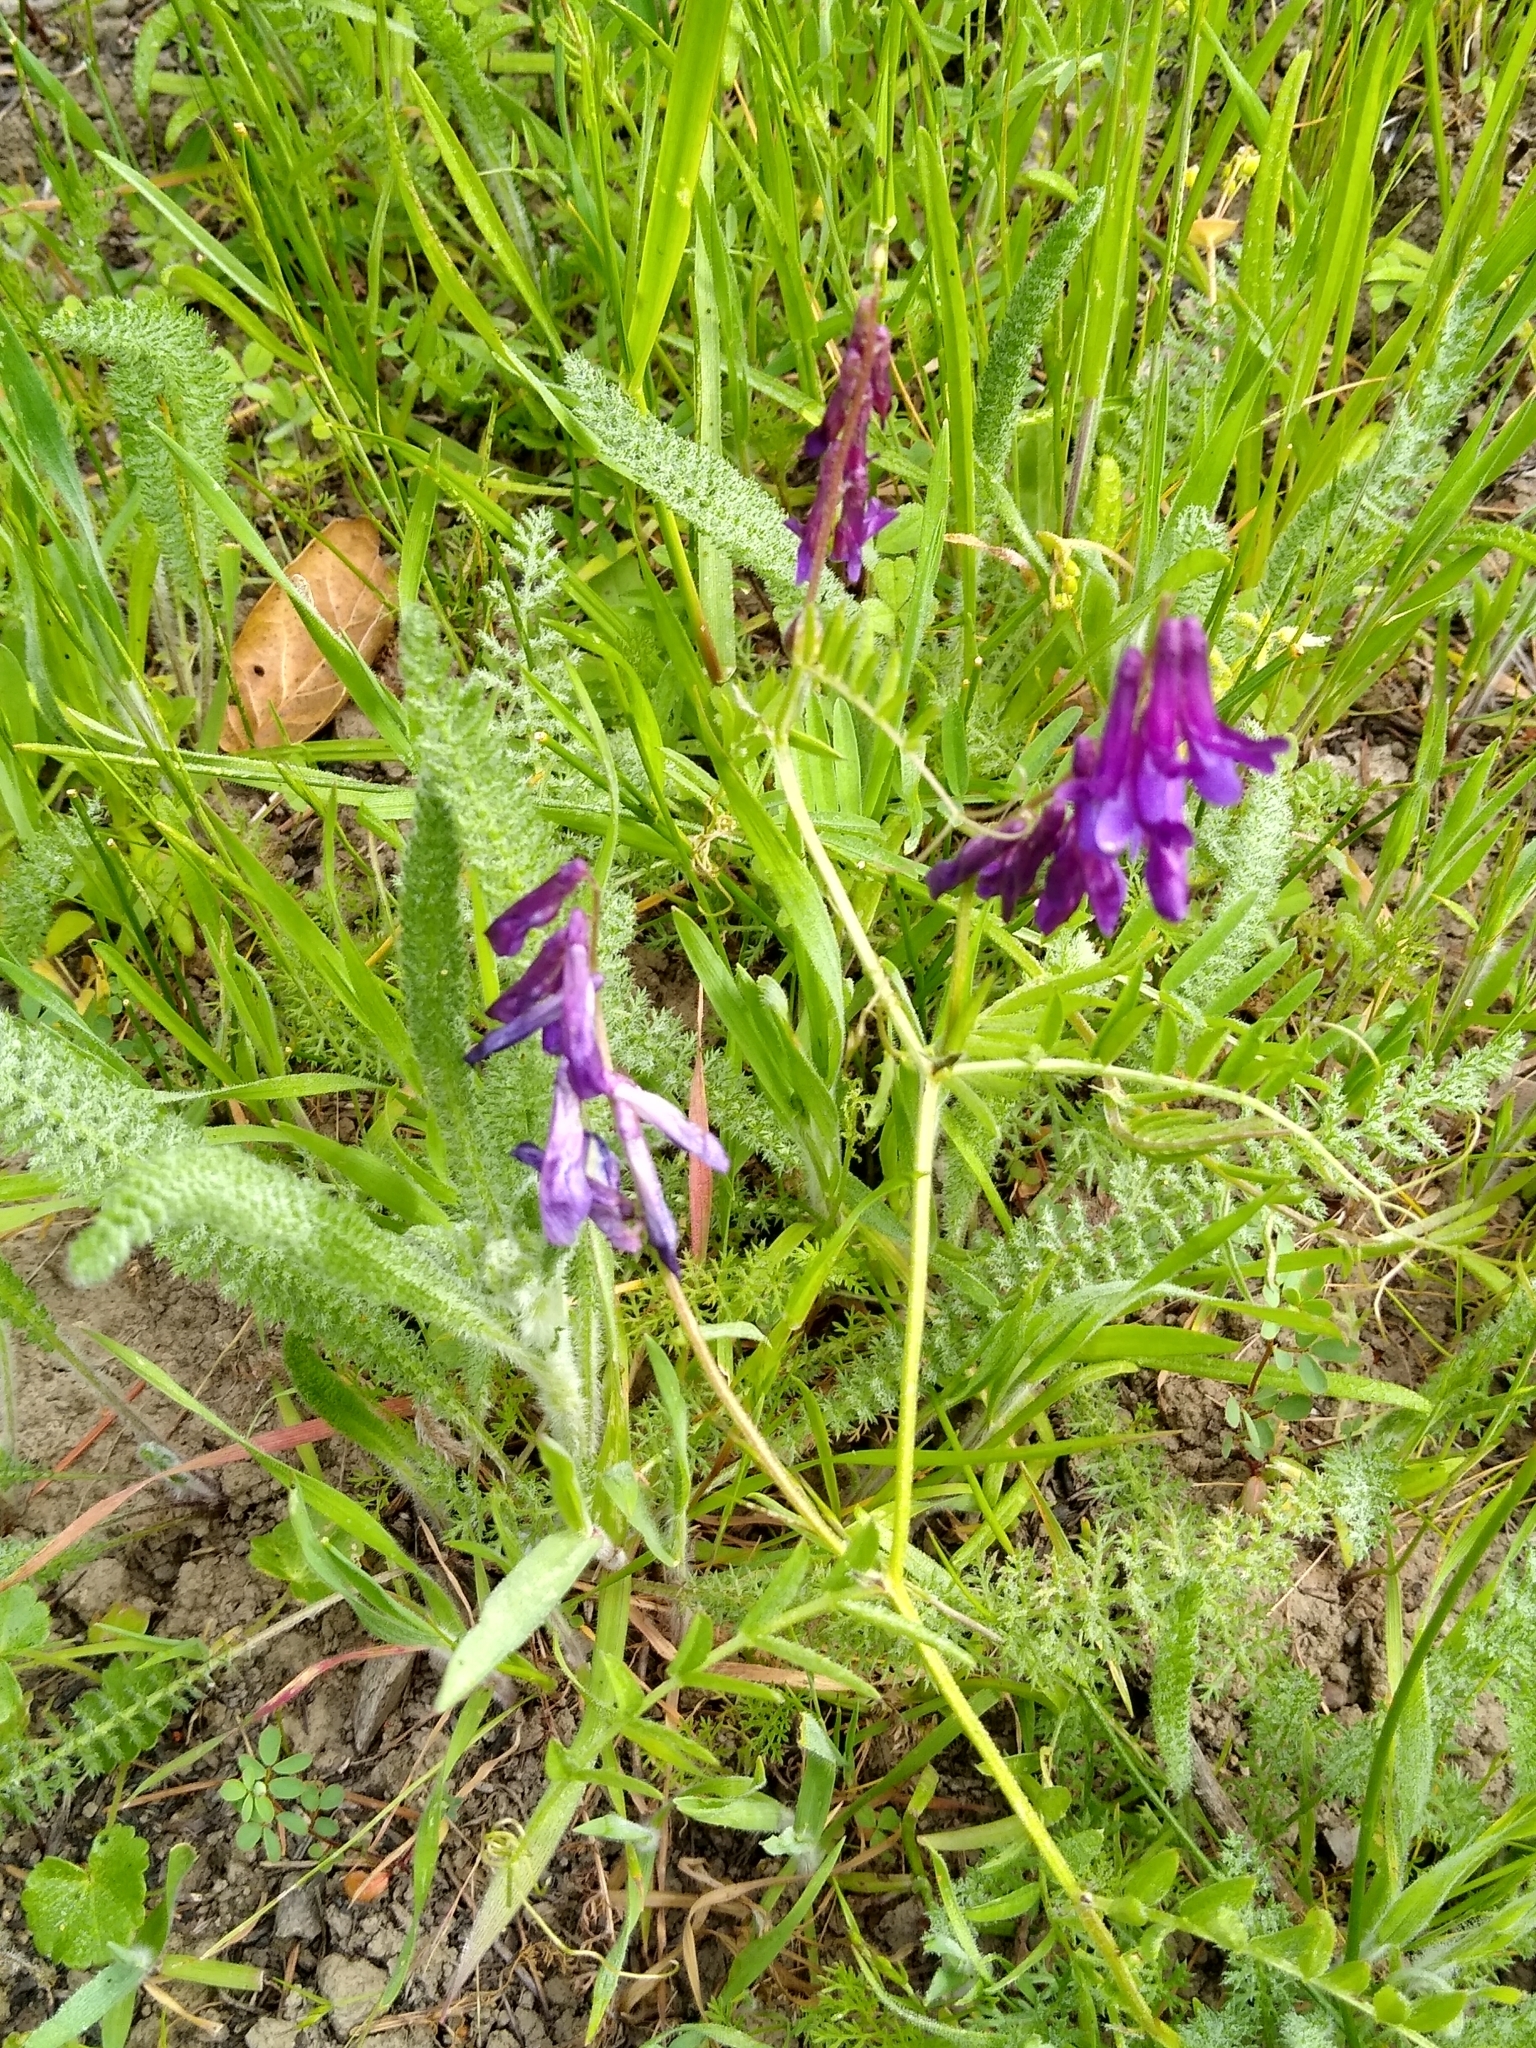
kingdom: Plantae
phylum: Tracheophyta
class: Magnoliopsida
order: Fabales
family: Fabaceae
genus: Vicia
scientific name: Vicia villosa
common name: Fodder vetch
